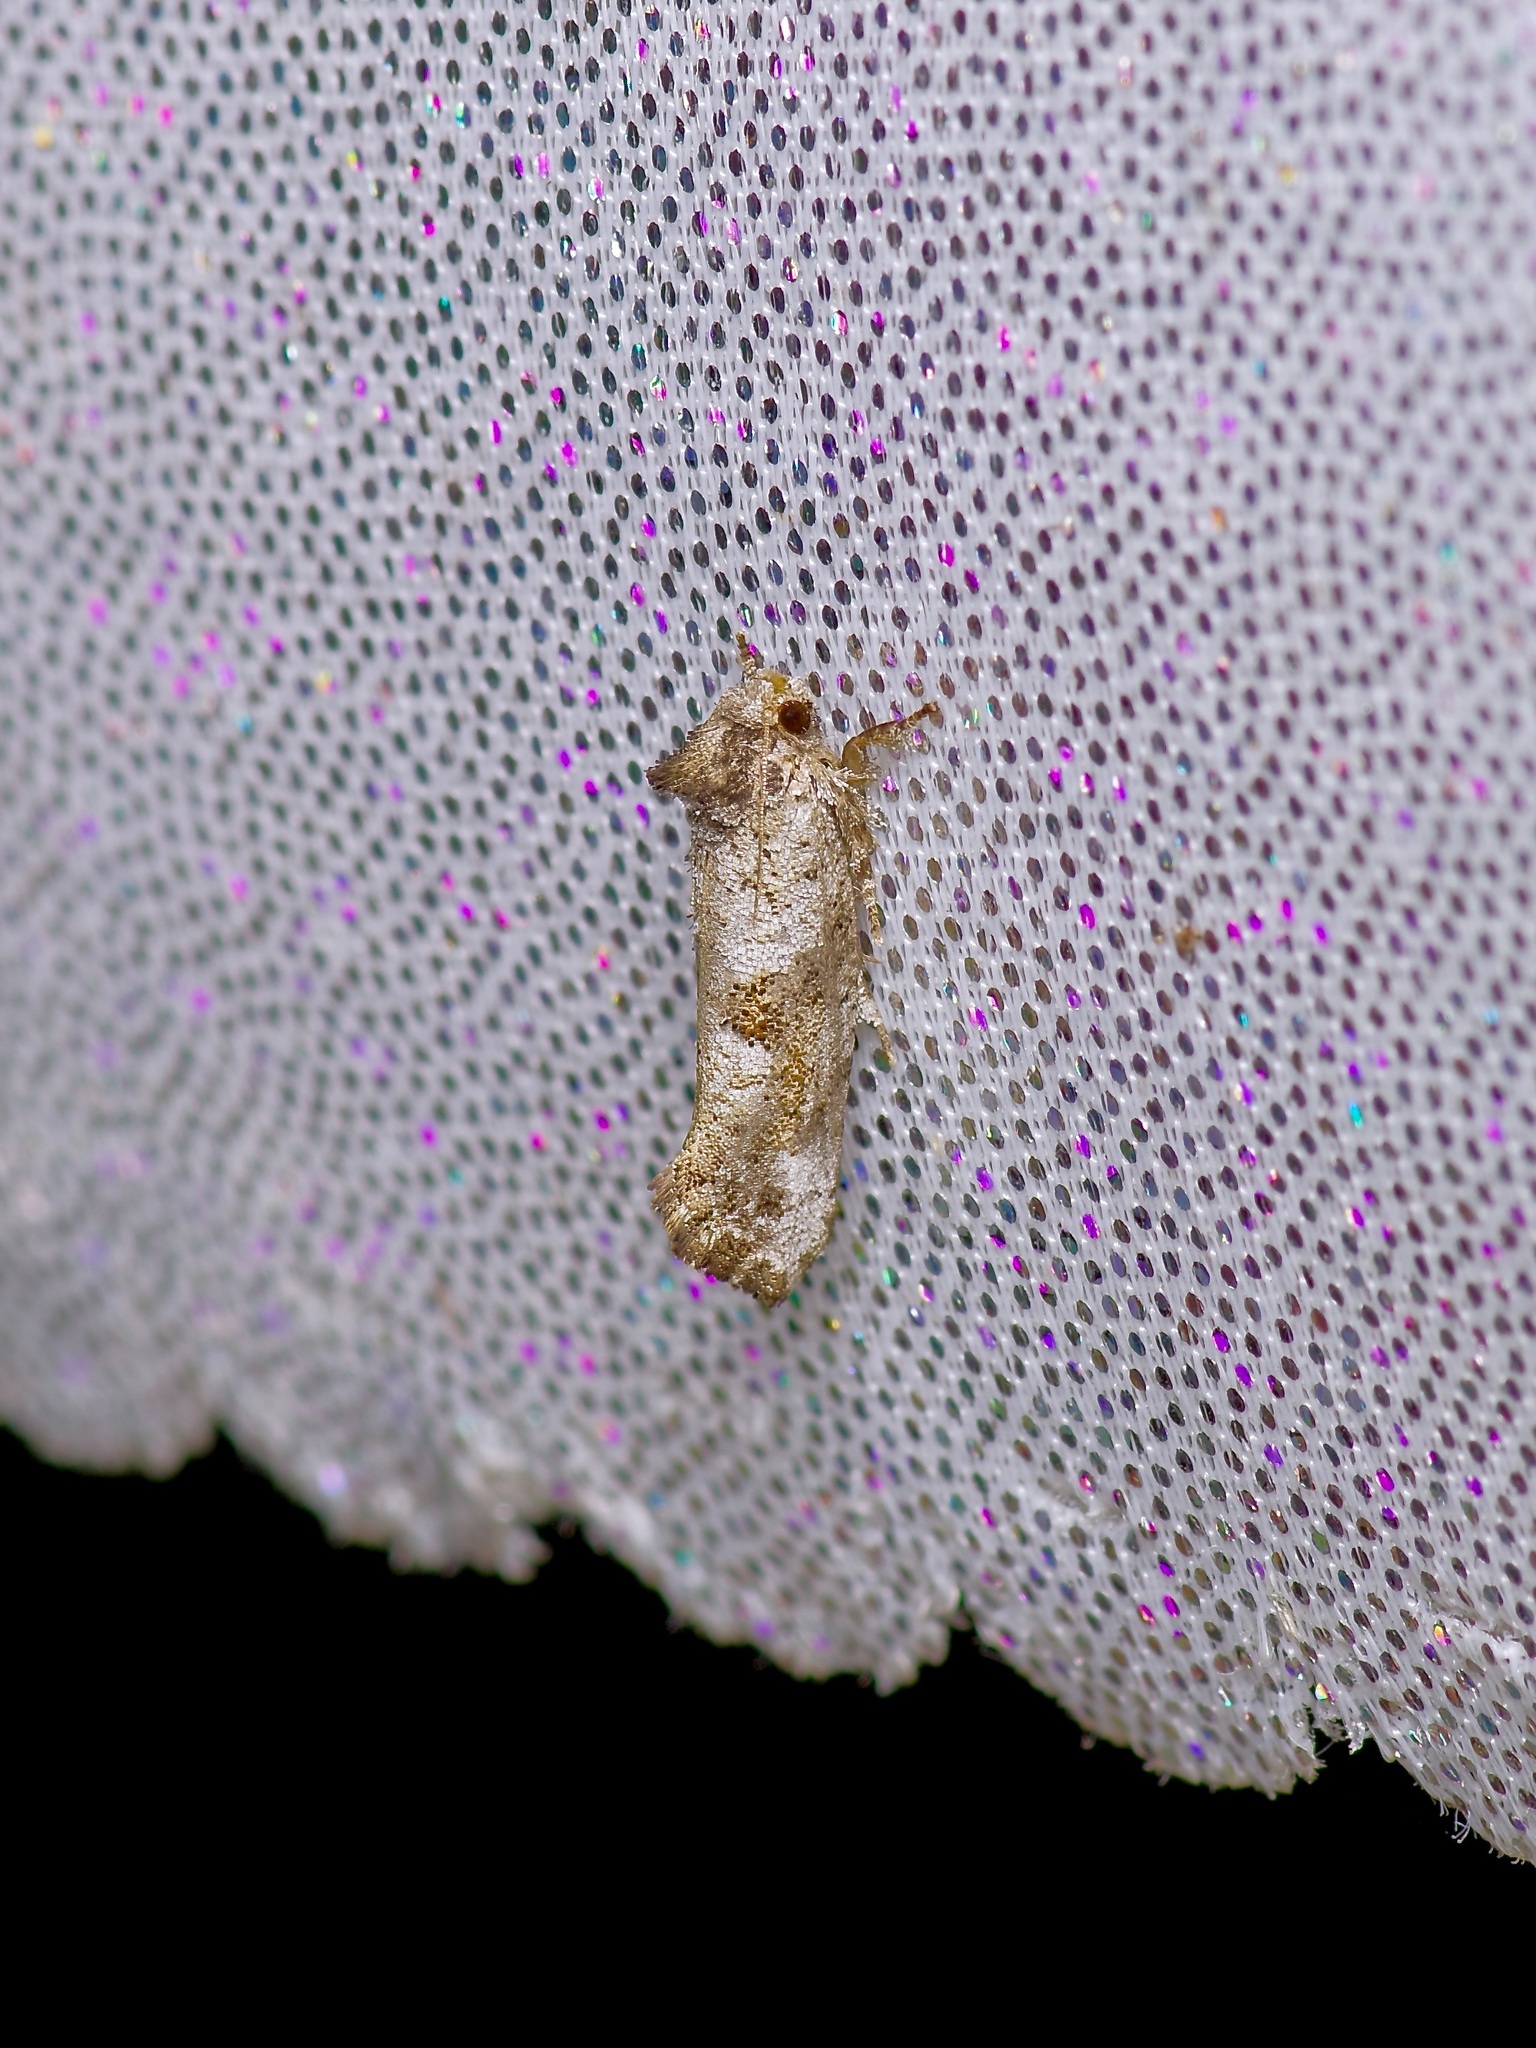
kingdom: Animalia
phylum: Arthropoda
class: Insecta
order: Lepidoptera
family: Tineidae
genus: Acrolophus
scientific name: Acrolophus piger
